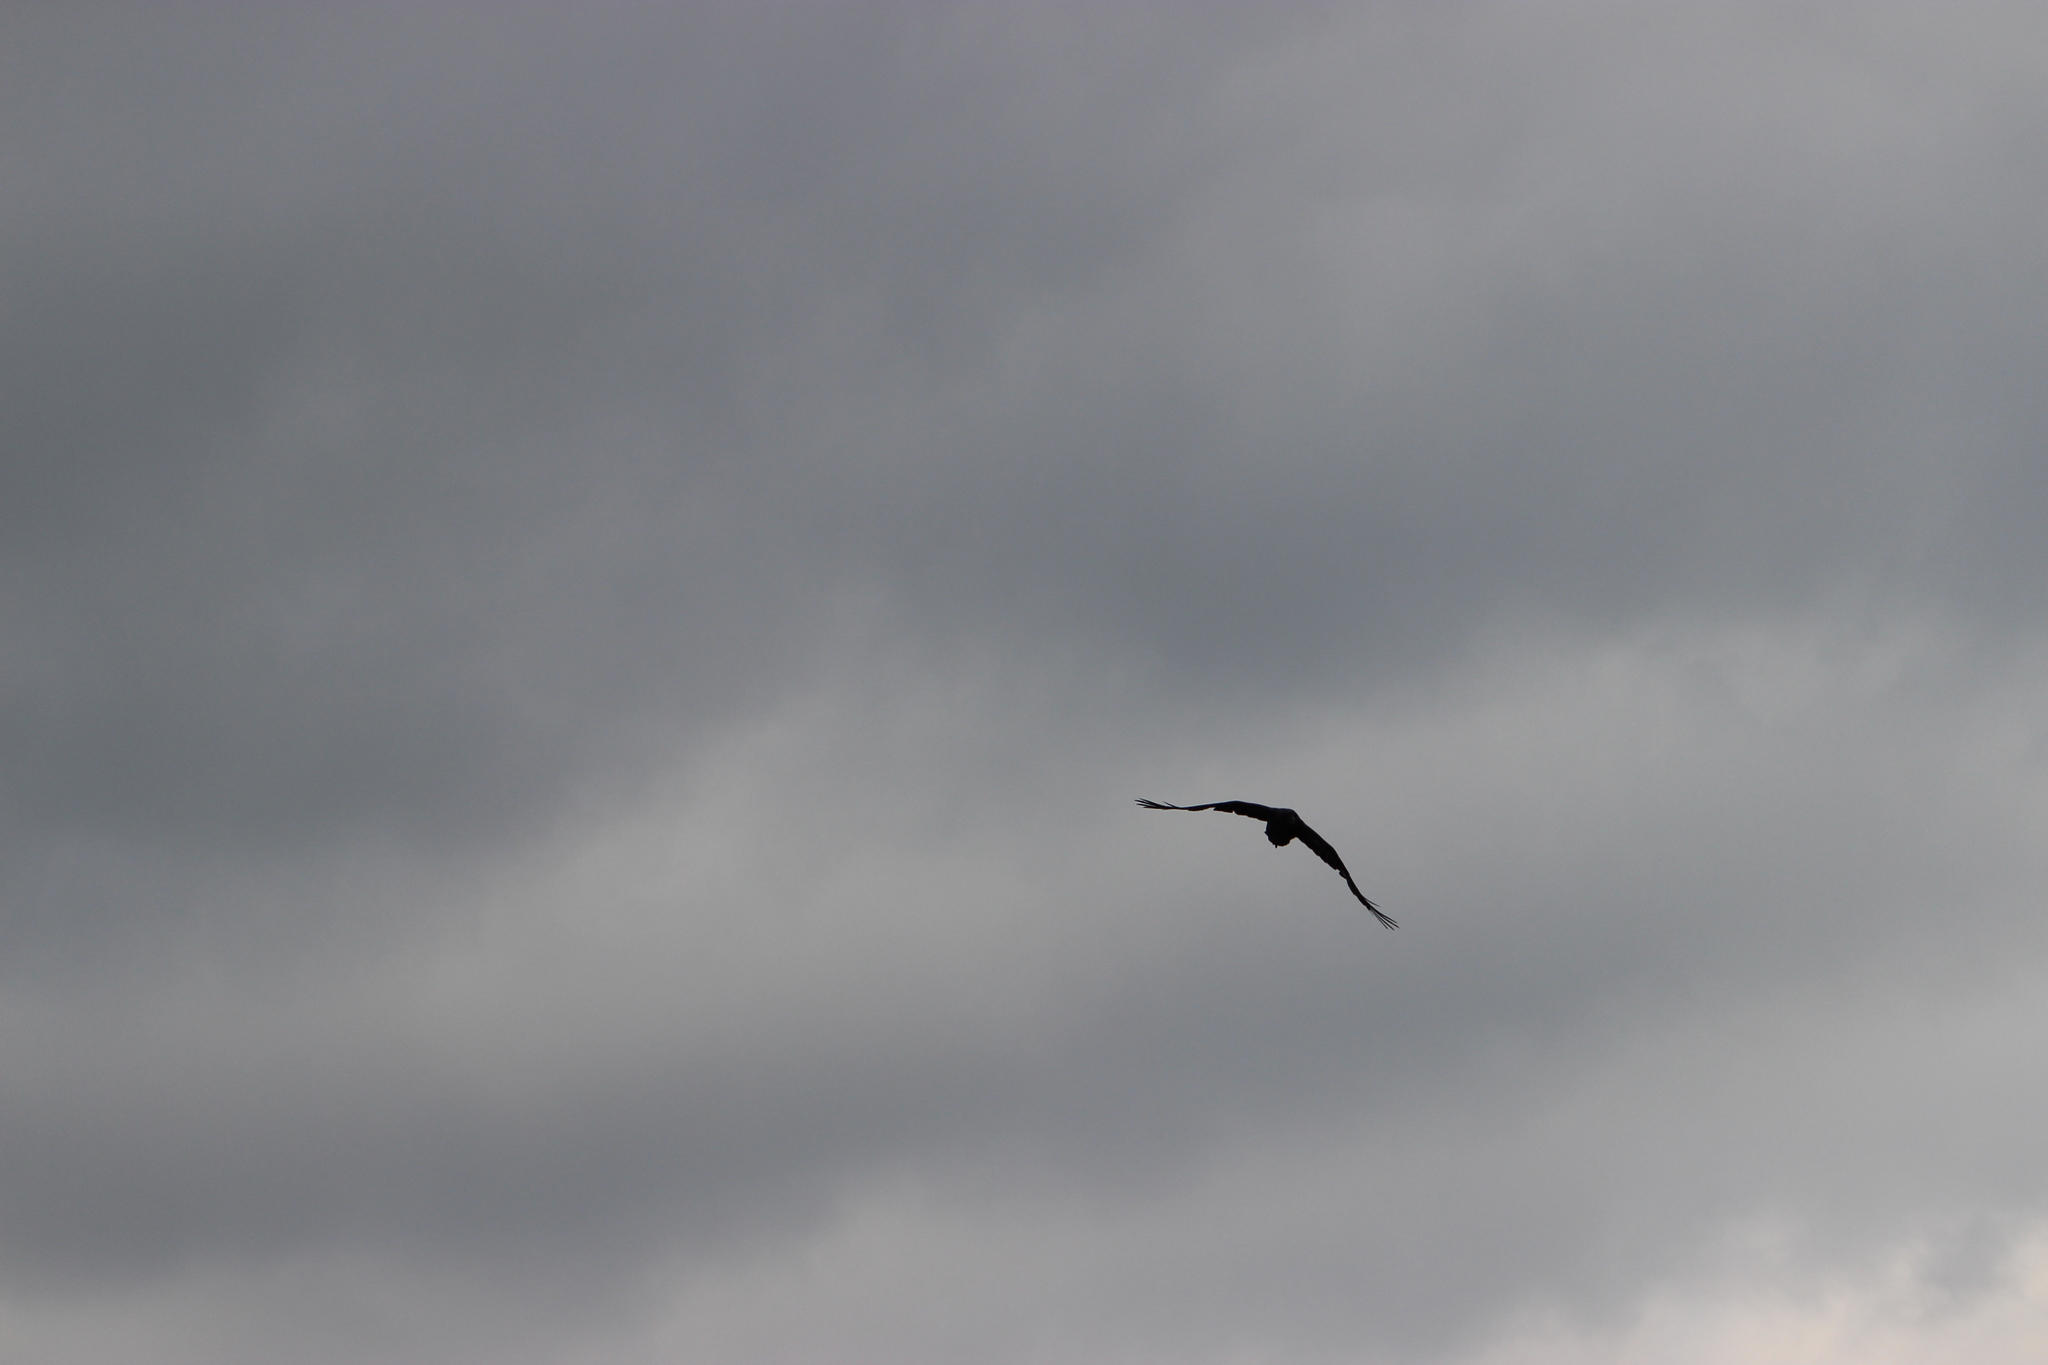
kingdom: Animalia
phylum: Chordata
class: Aves
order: Passeriformes
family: Corvidae
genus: Corvus
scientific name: Corvus corax
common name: Common raven
